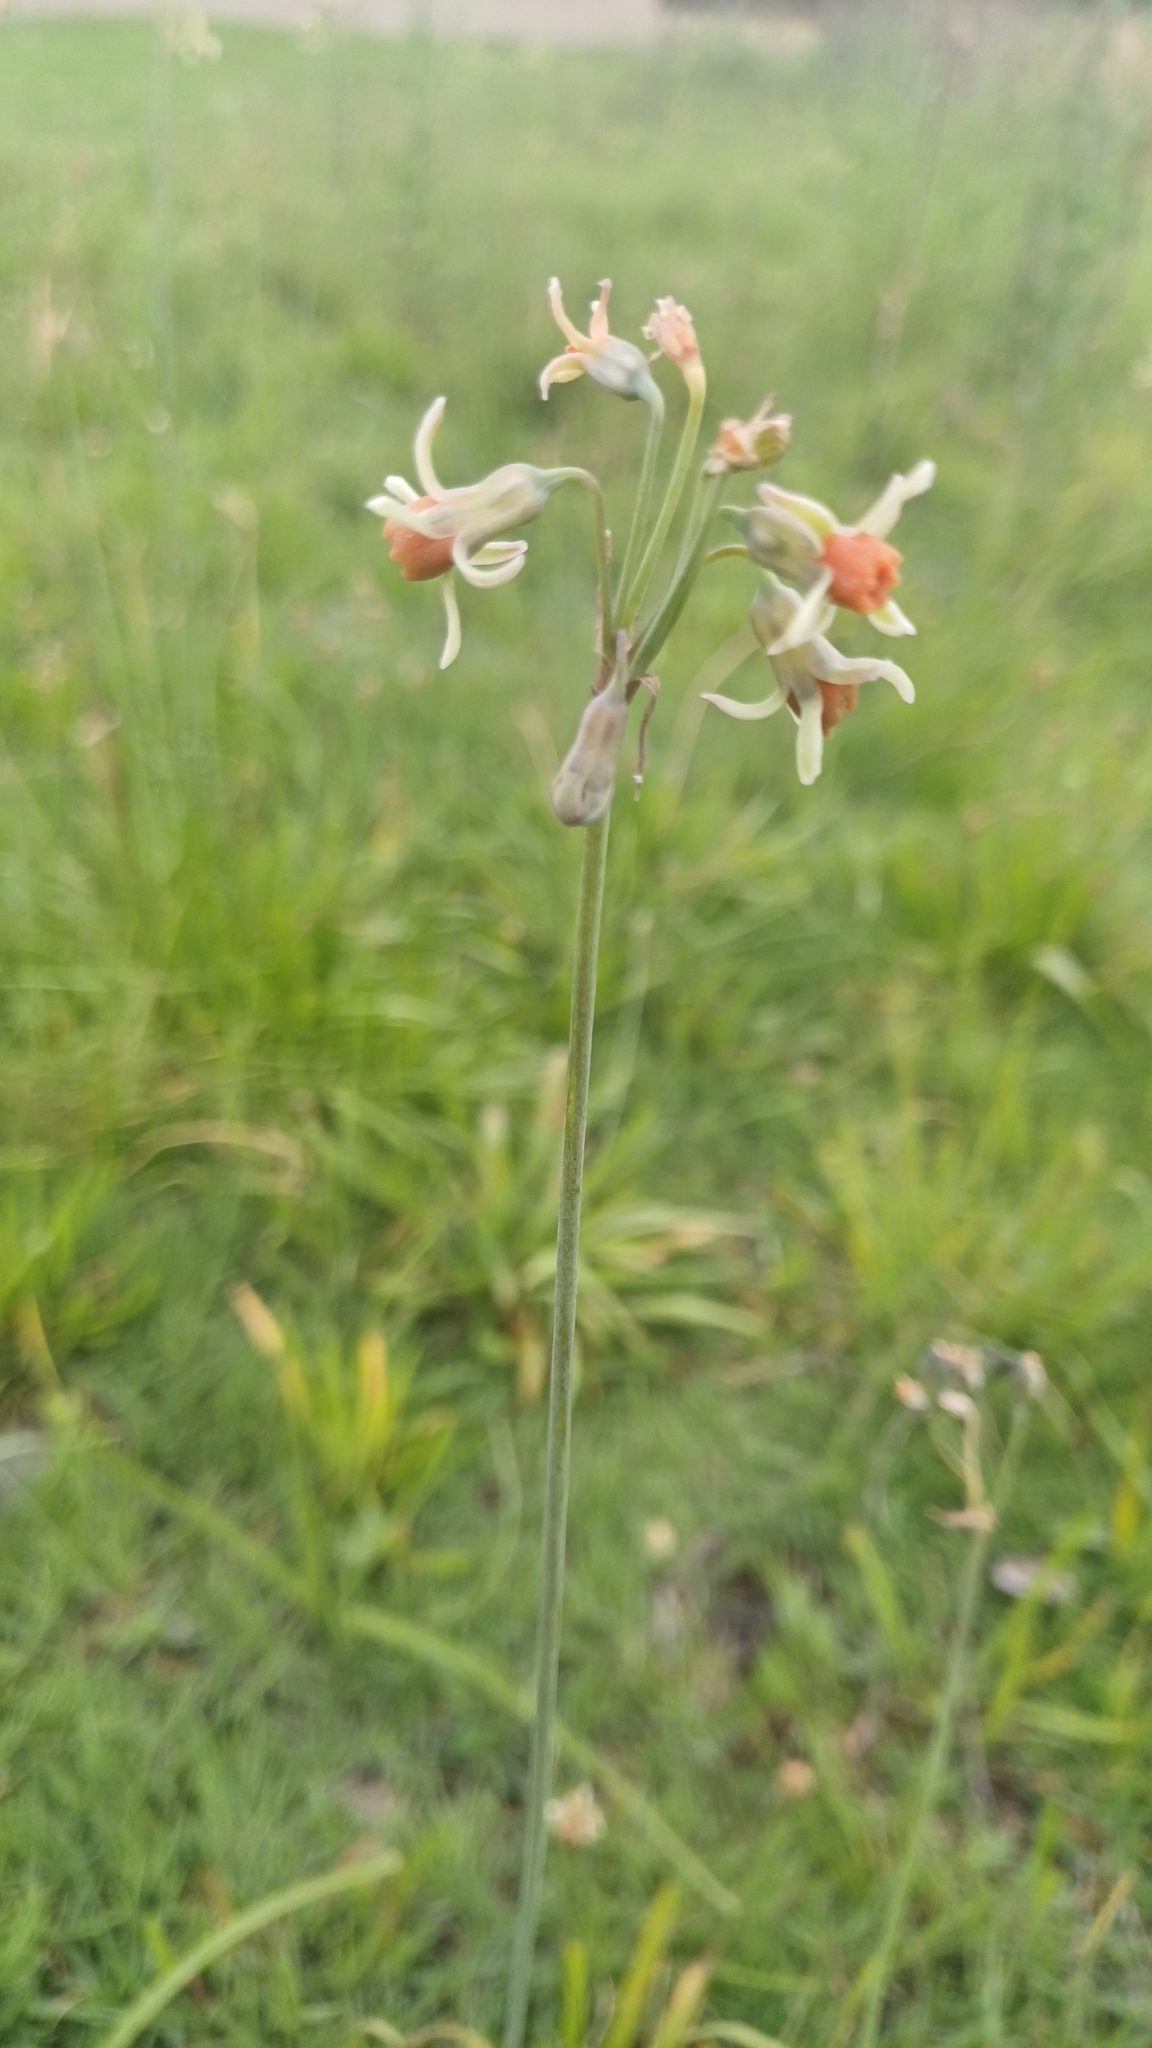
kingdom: Plantae
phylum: Tracheophyta
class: Liliopsida
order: Asparagales
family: Amaryllidaceae
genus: Tulbaghia
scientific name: Tulbaghia leucantha
